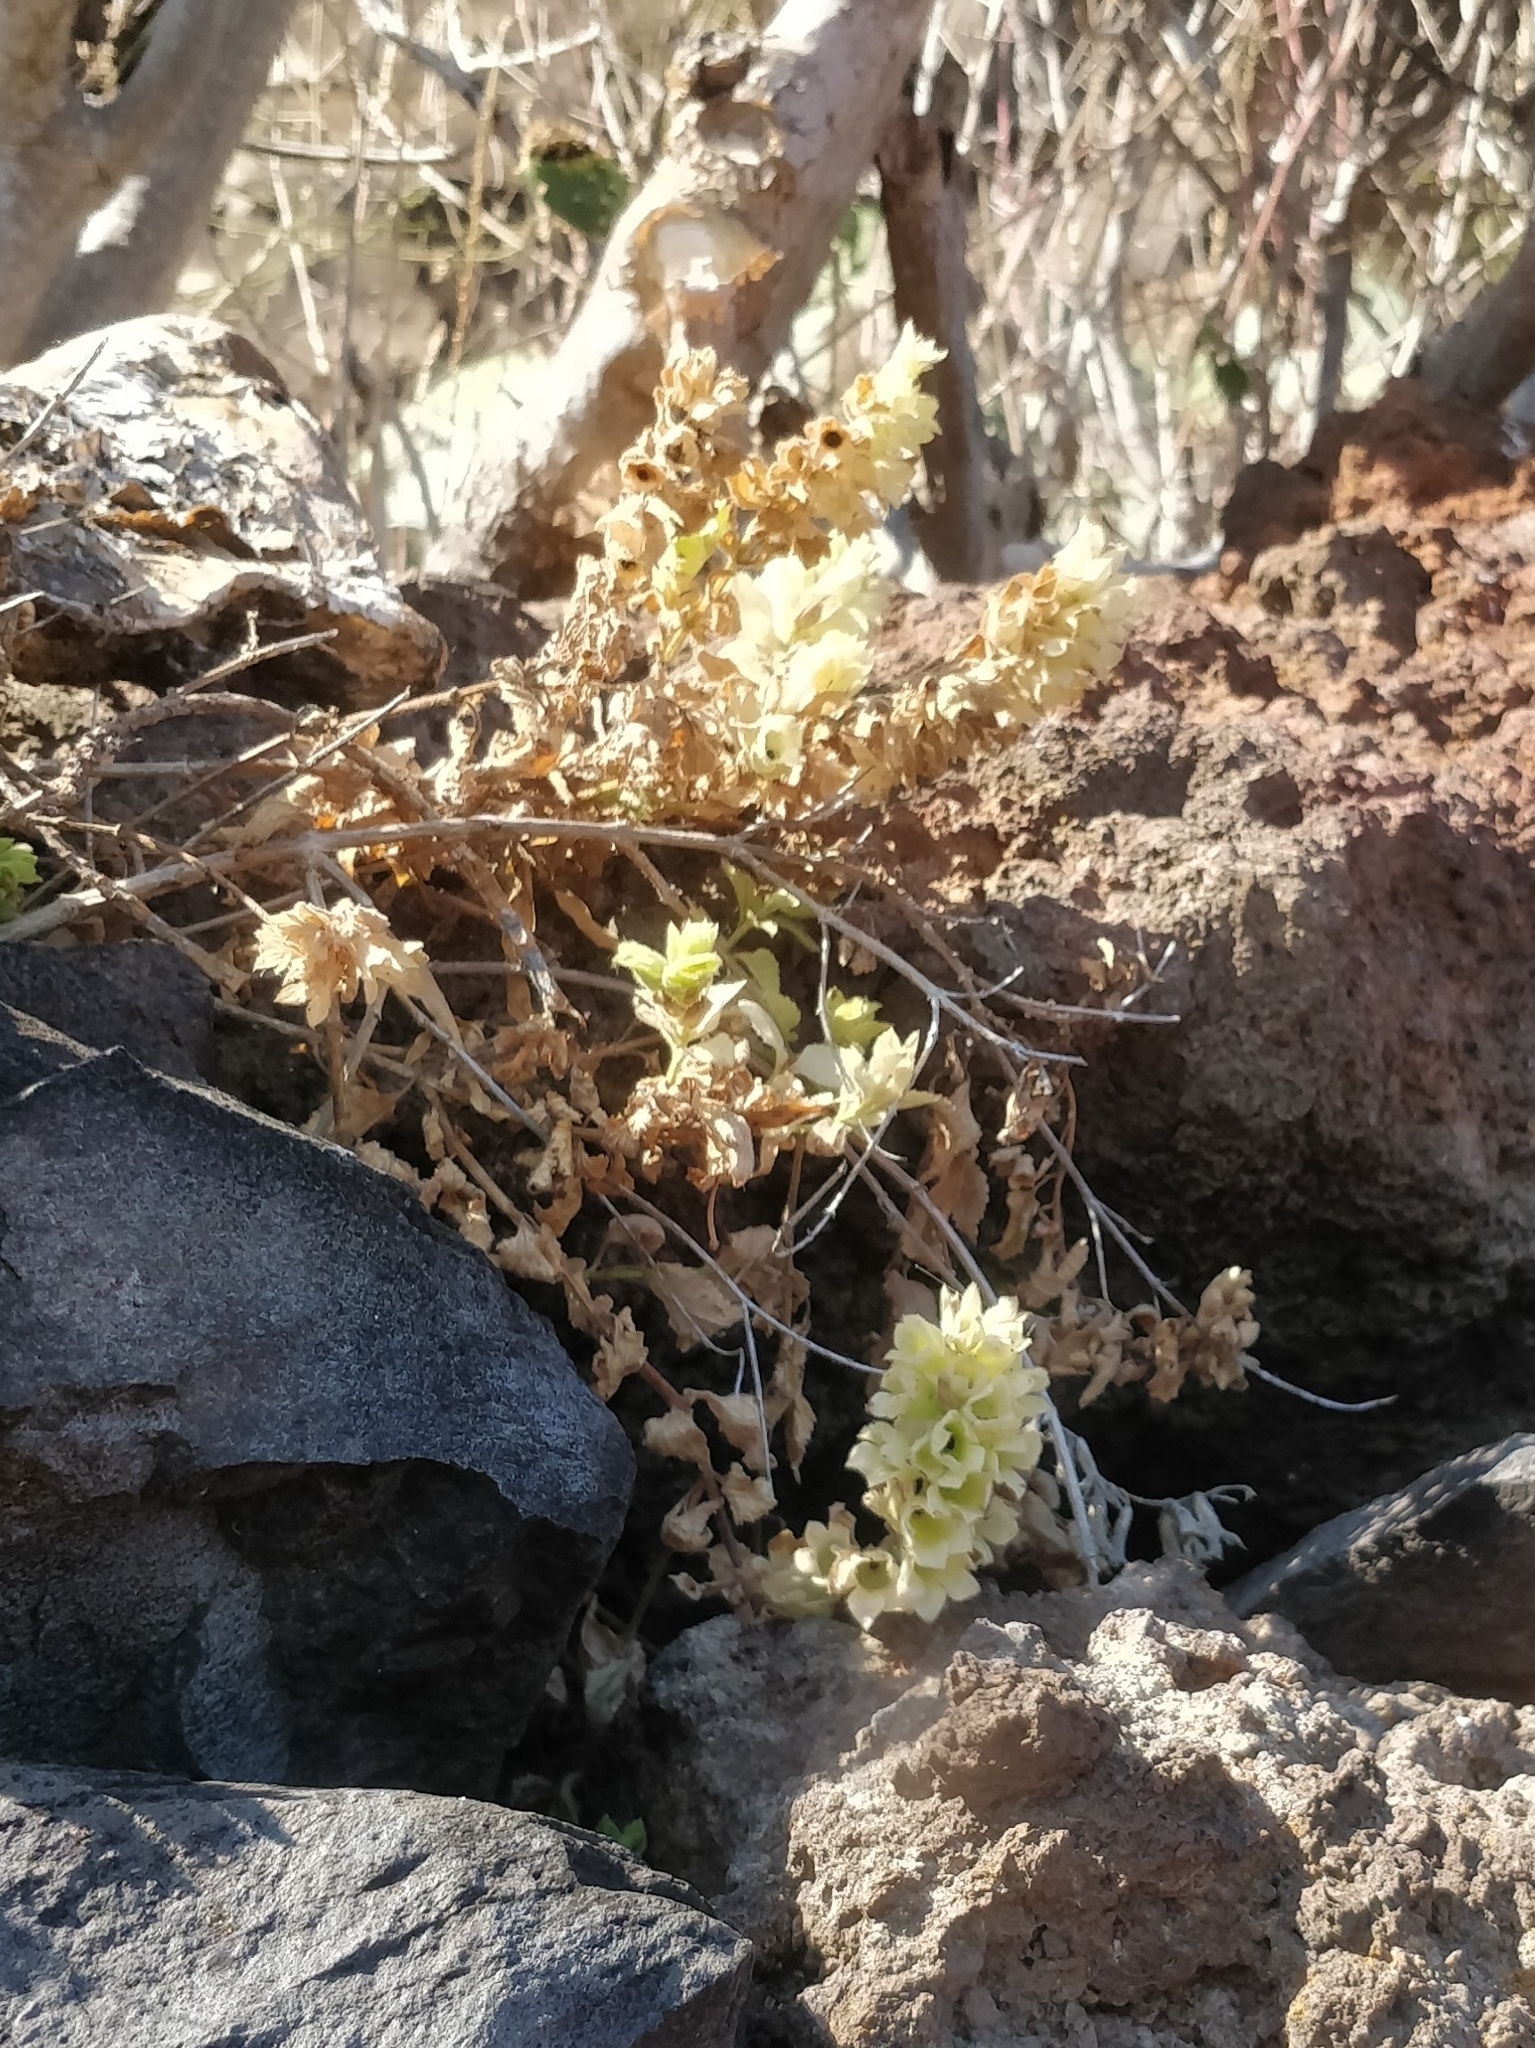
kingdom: Plantae
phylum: Tracheophyta
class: Magnoliopsida
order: Solanales
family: Solanaceae
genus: Hyoscyamus
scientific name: Hyoscyamus albus
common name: White henbane
